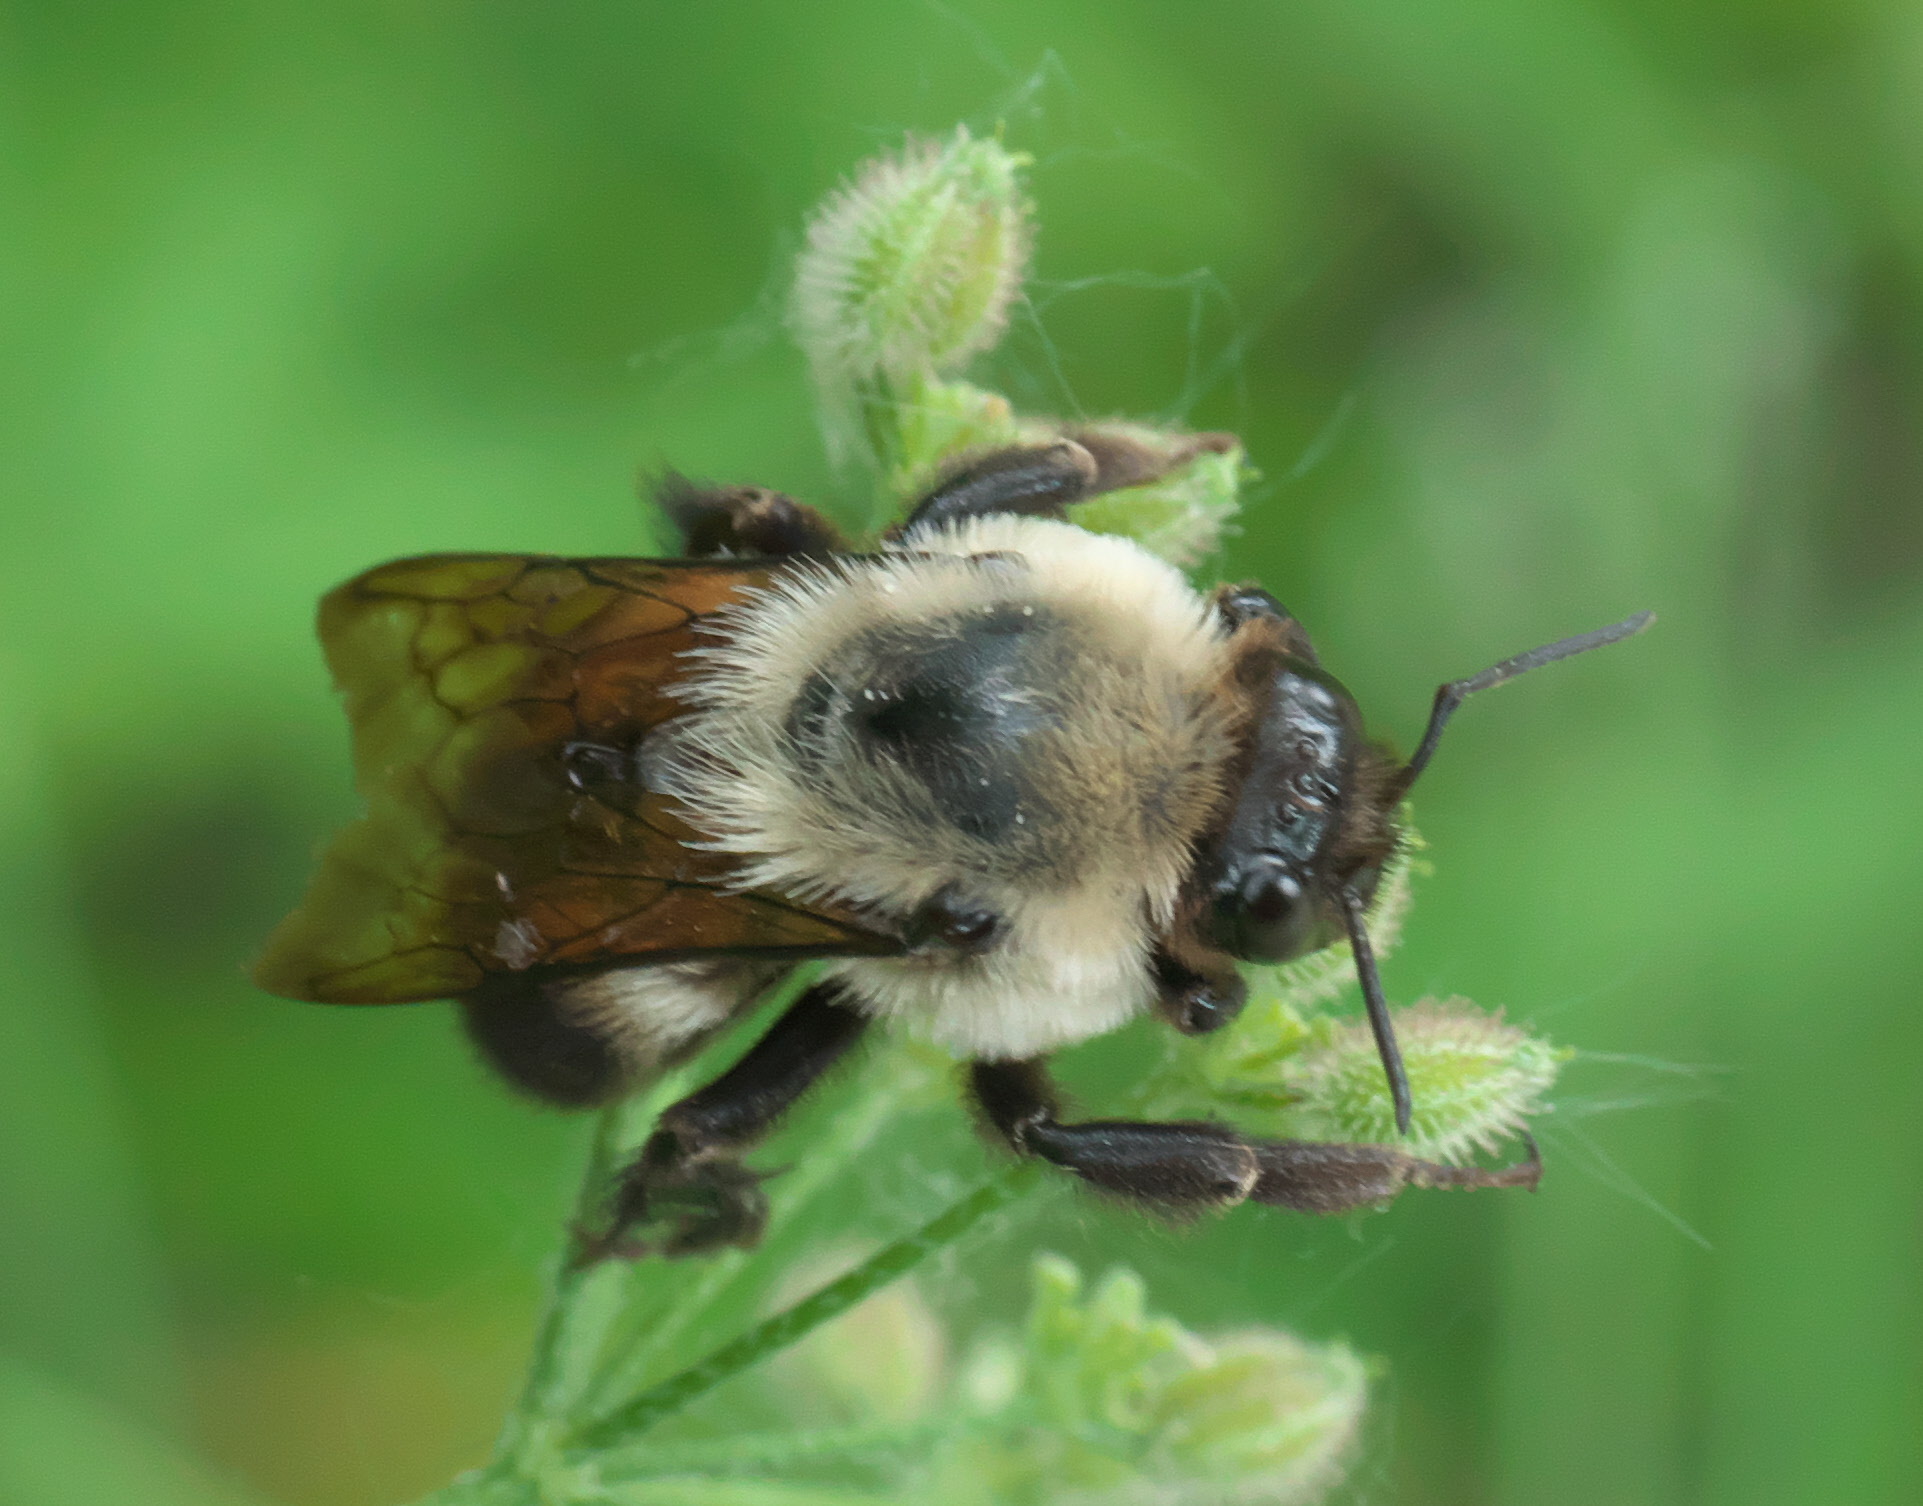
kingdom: Animalia
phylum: Arthropoda
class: Insecta
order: Hymenoptera
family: Apidae
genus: Bombus
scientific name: Bombus griseocollis
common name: Brown-belted bumble bee
